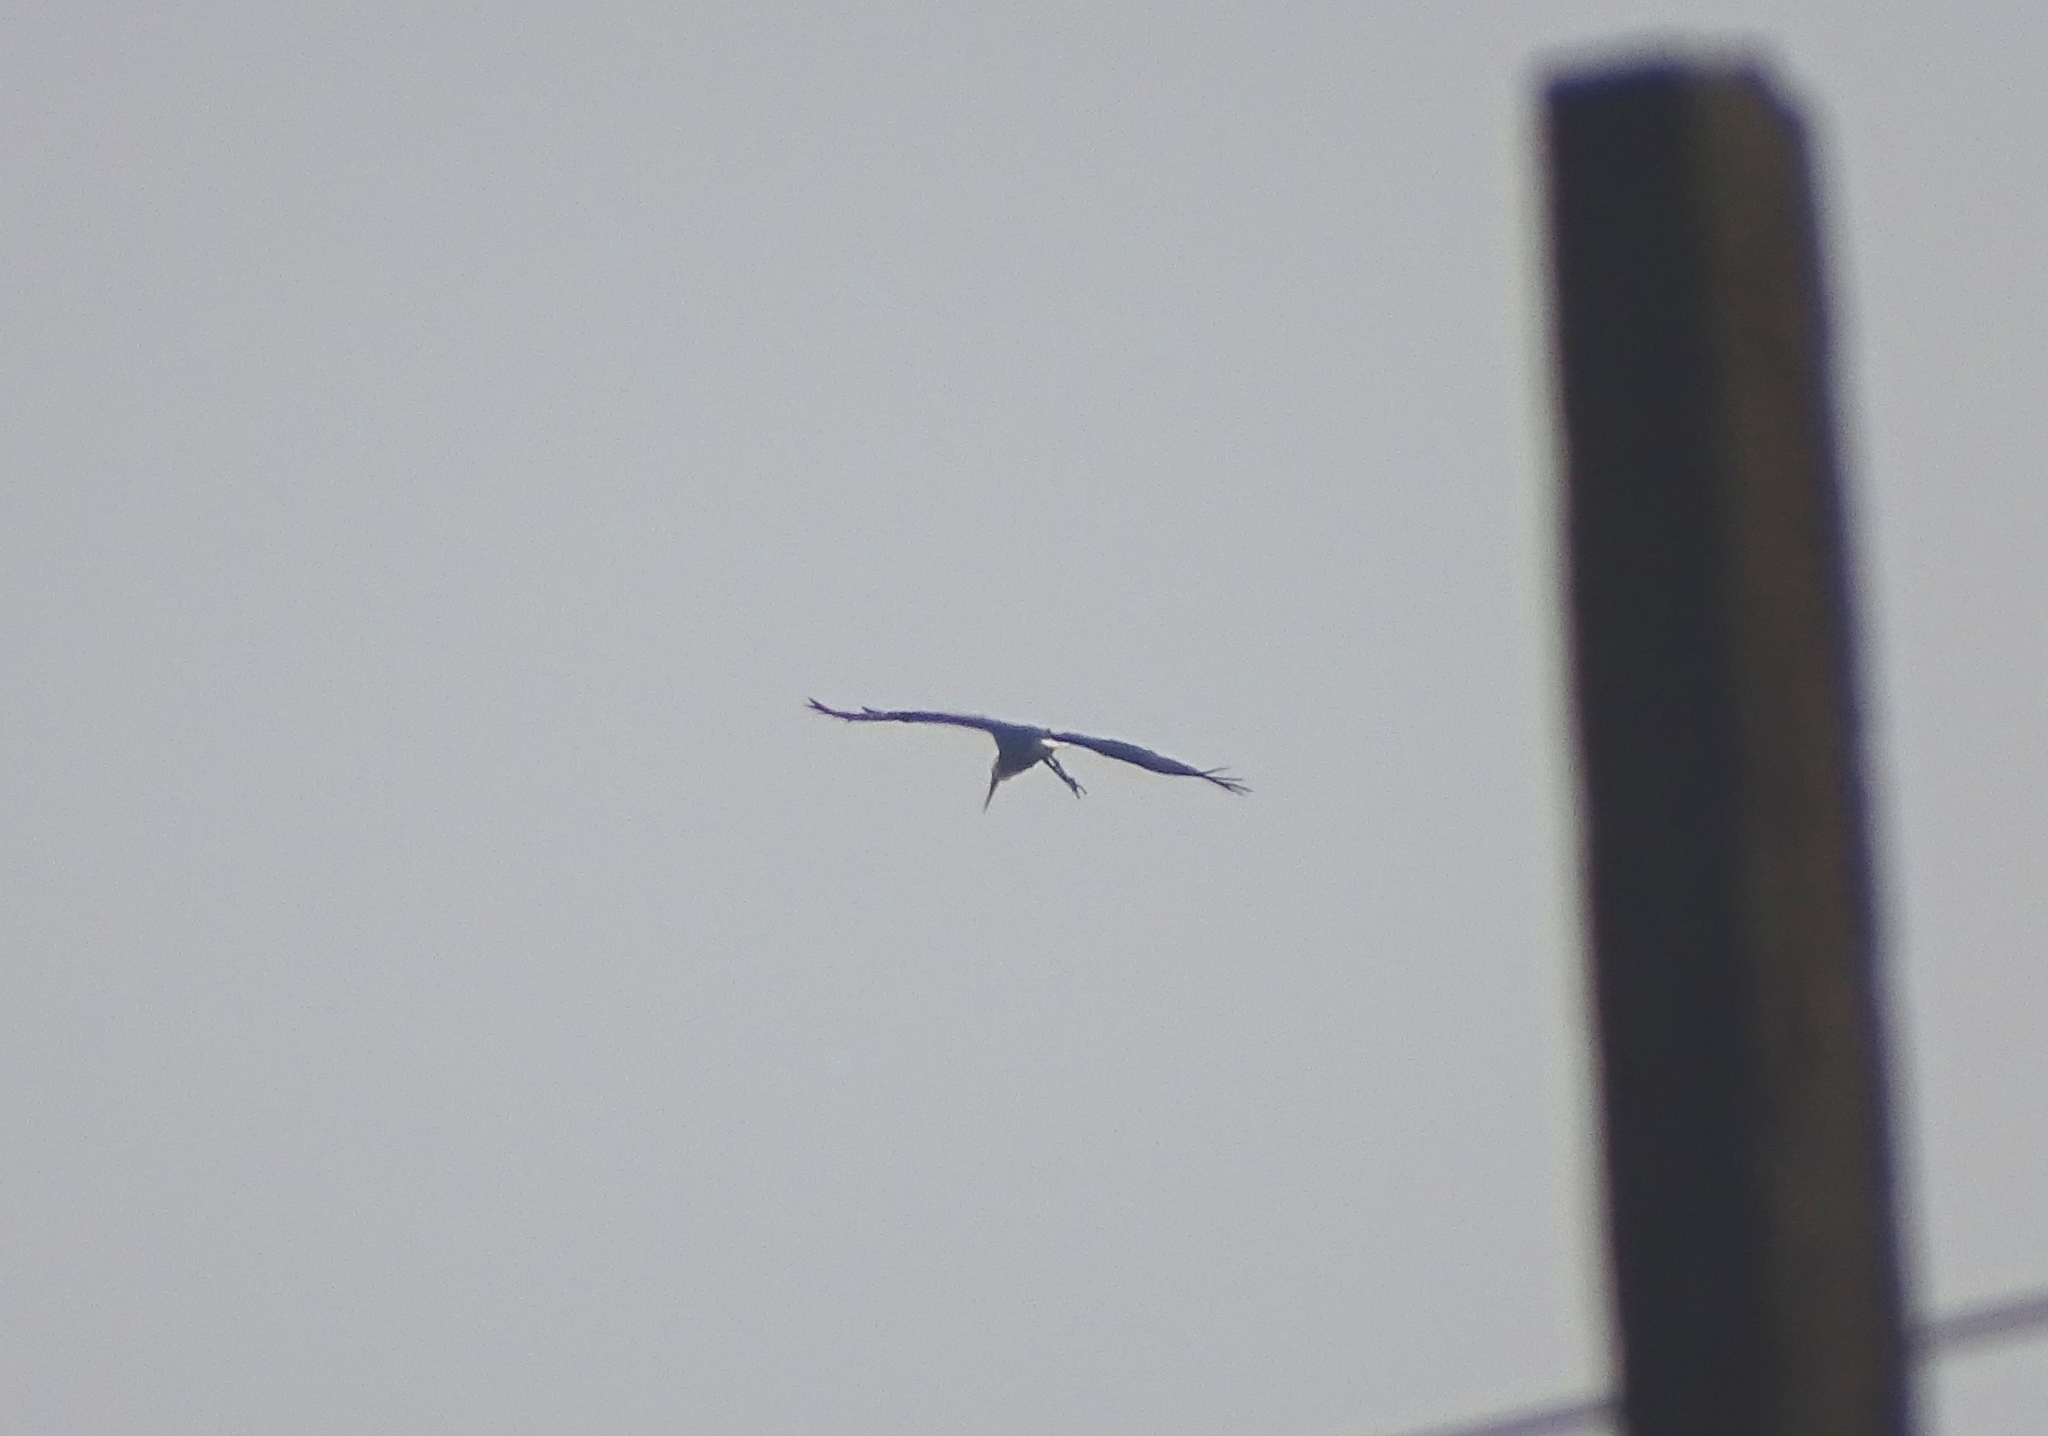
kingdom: Animalia
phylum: Chordata
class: Aves
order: Ciconiiformes
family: Ciconiidae
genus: Ciconia
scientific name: Ciconia episcopus
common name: Woolly-necked stork
